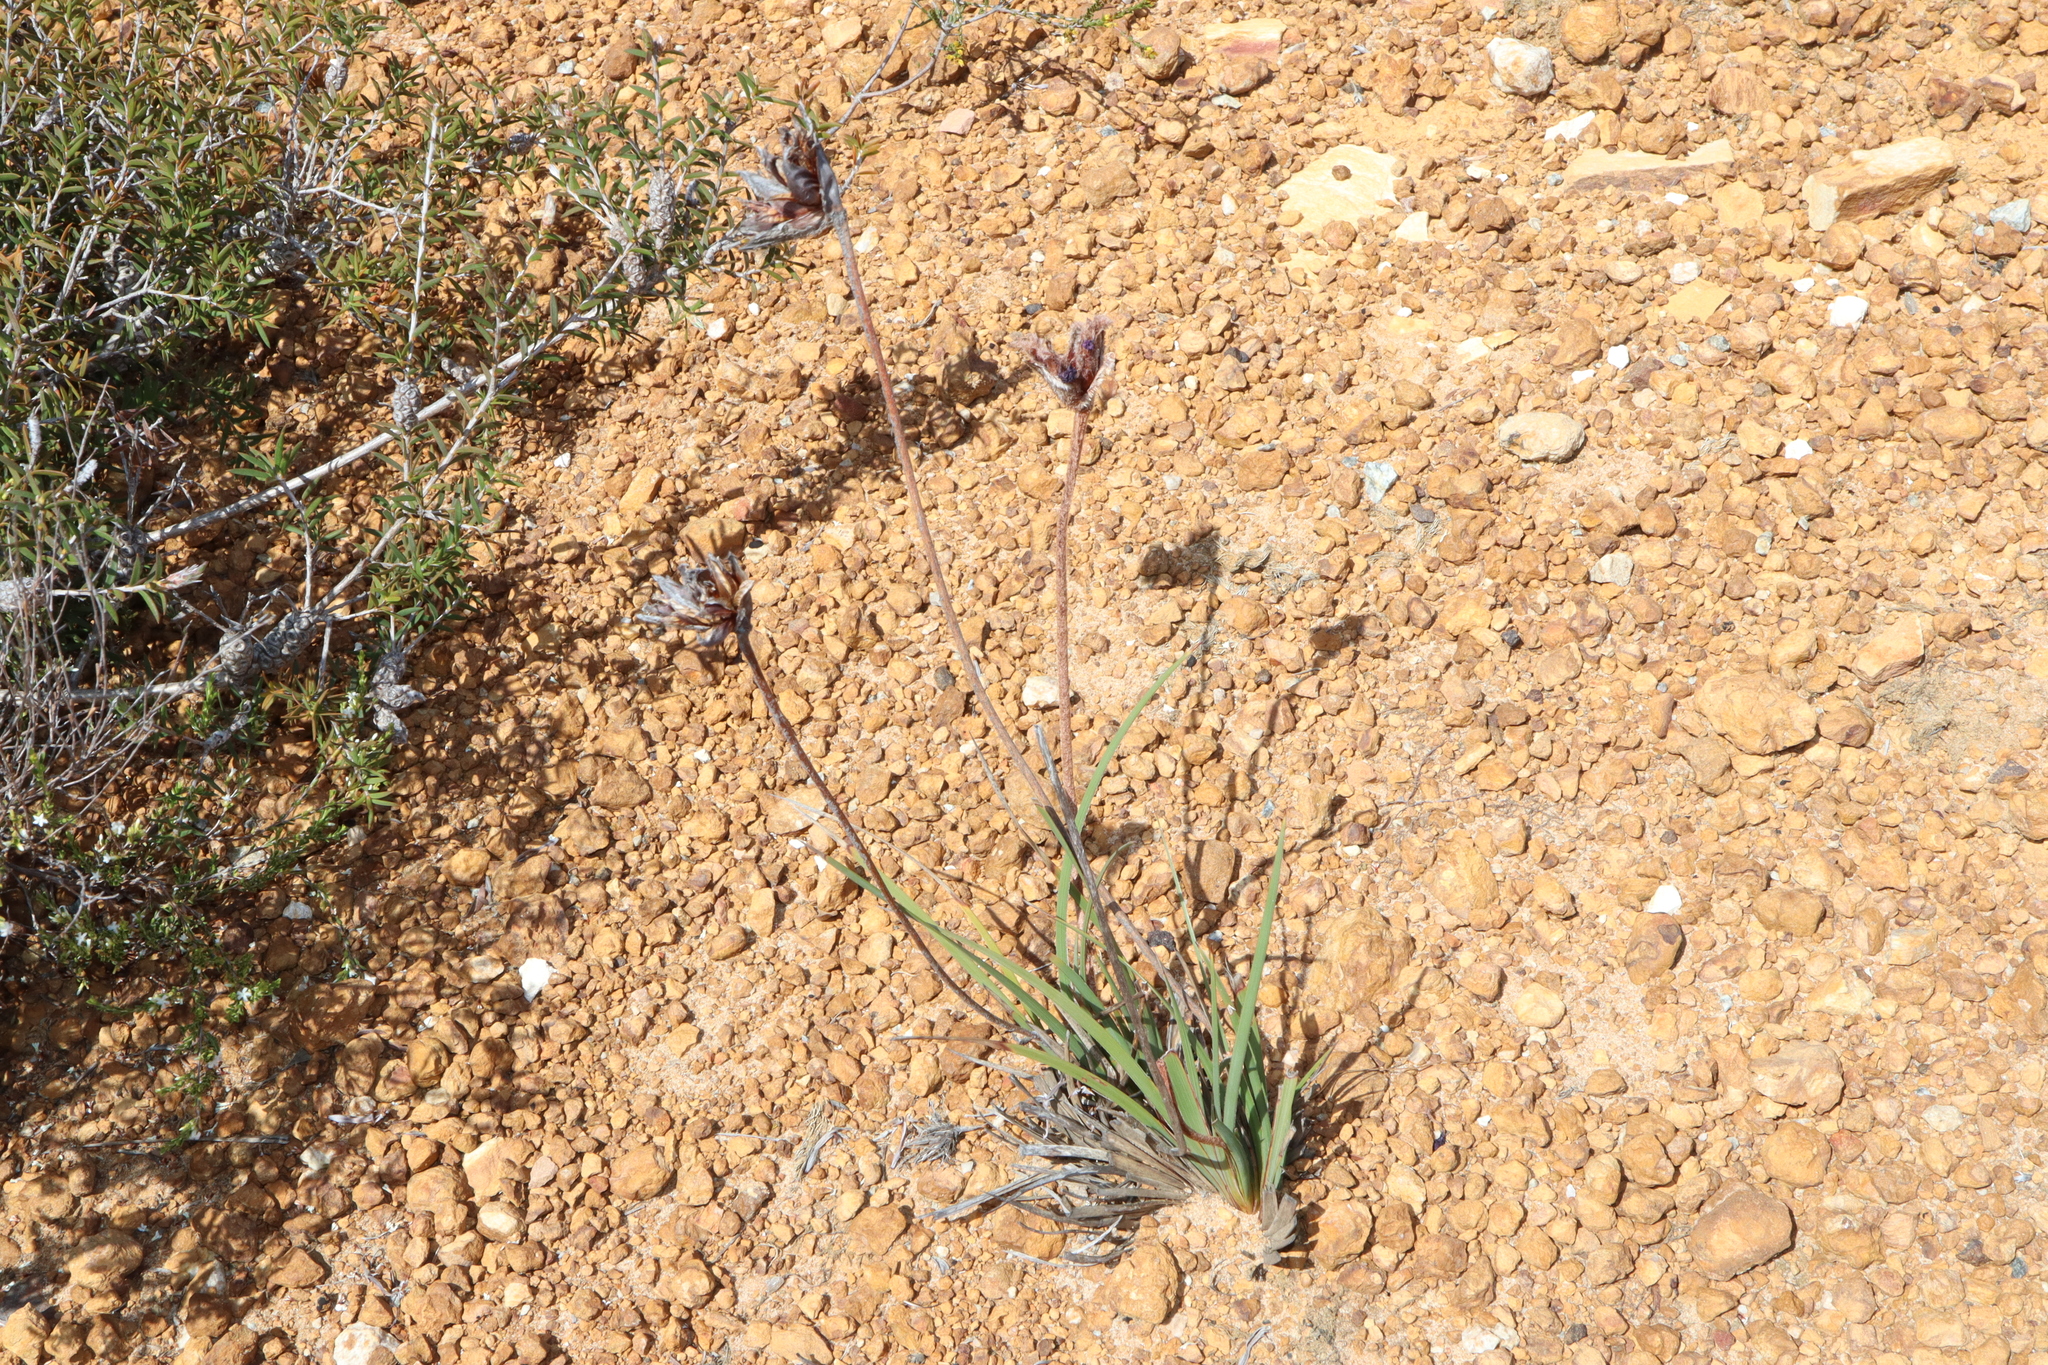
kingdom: Plantae
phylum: Tracheophyta
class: Liliopsida
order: Asparagales
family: Iridaceae
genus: Patersonia
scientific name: Patersonia lanata
